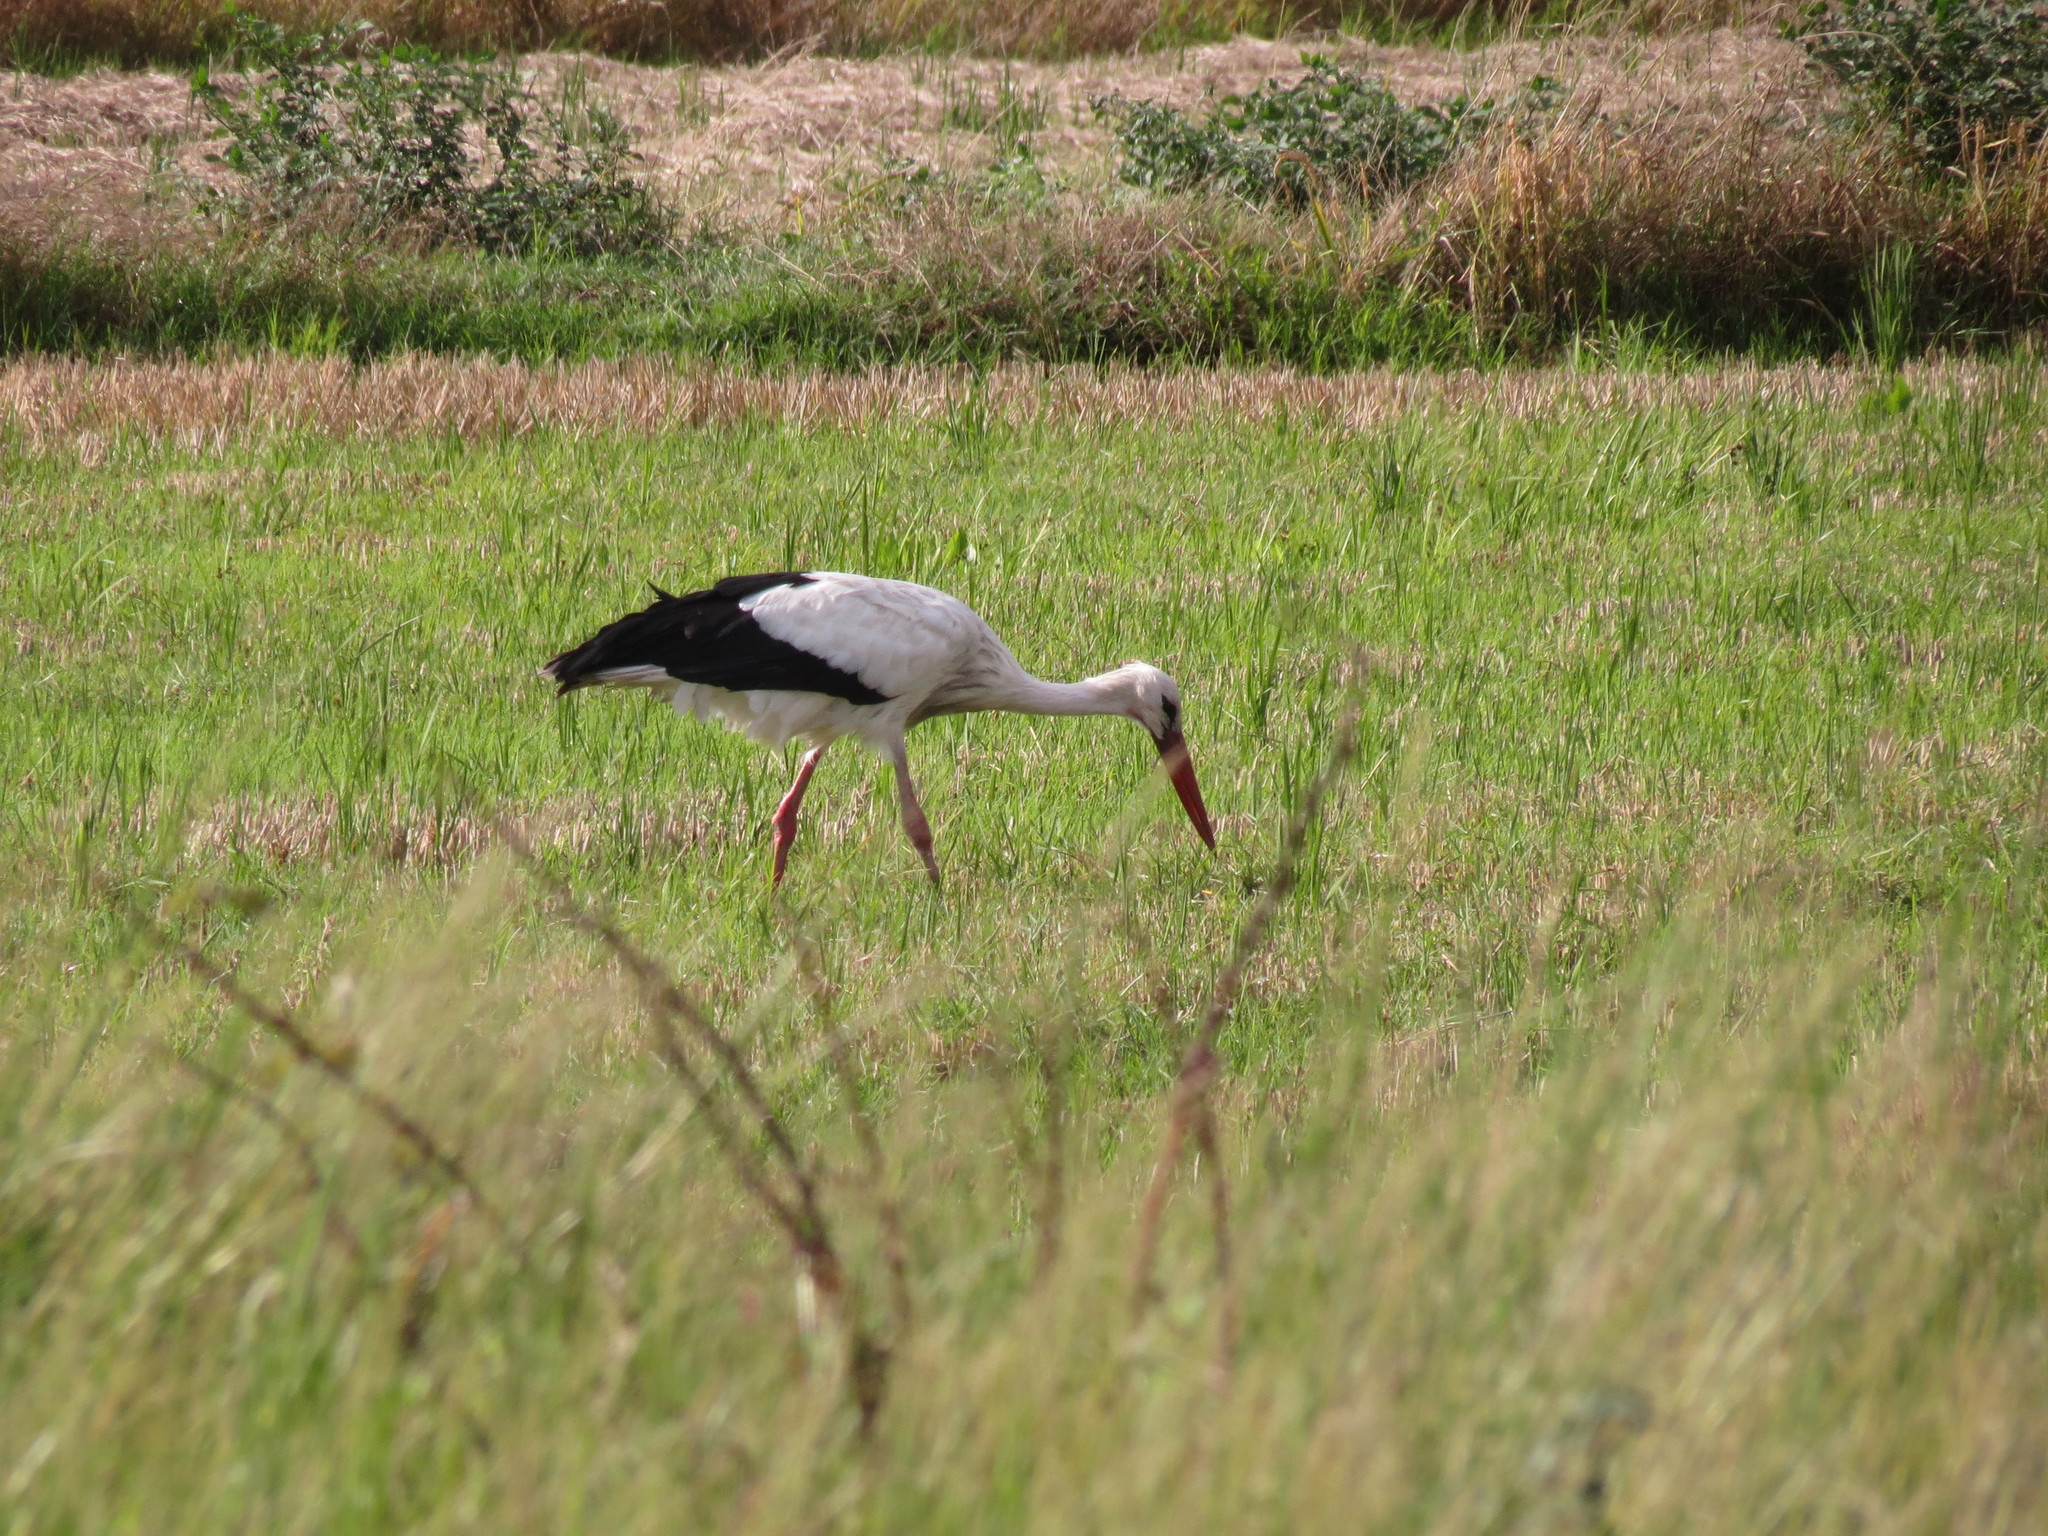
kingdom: Animalia
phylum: Chordata
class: Aves
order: Ciconiiformes
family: Ciconiidae
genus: Ciconia
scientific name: Ciconia ciconia
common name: White stork
